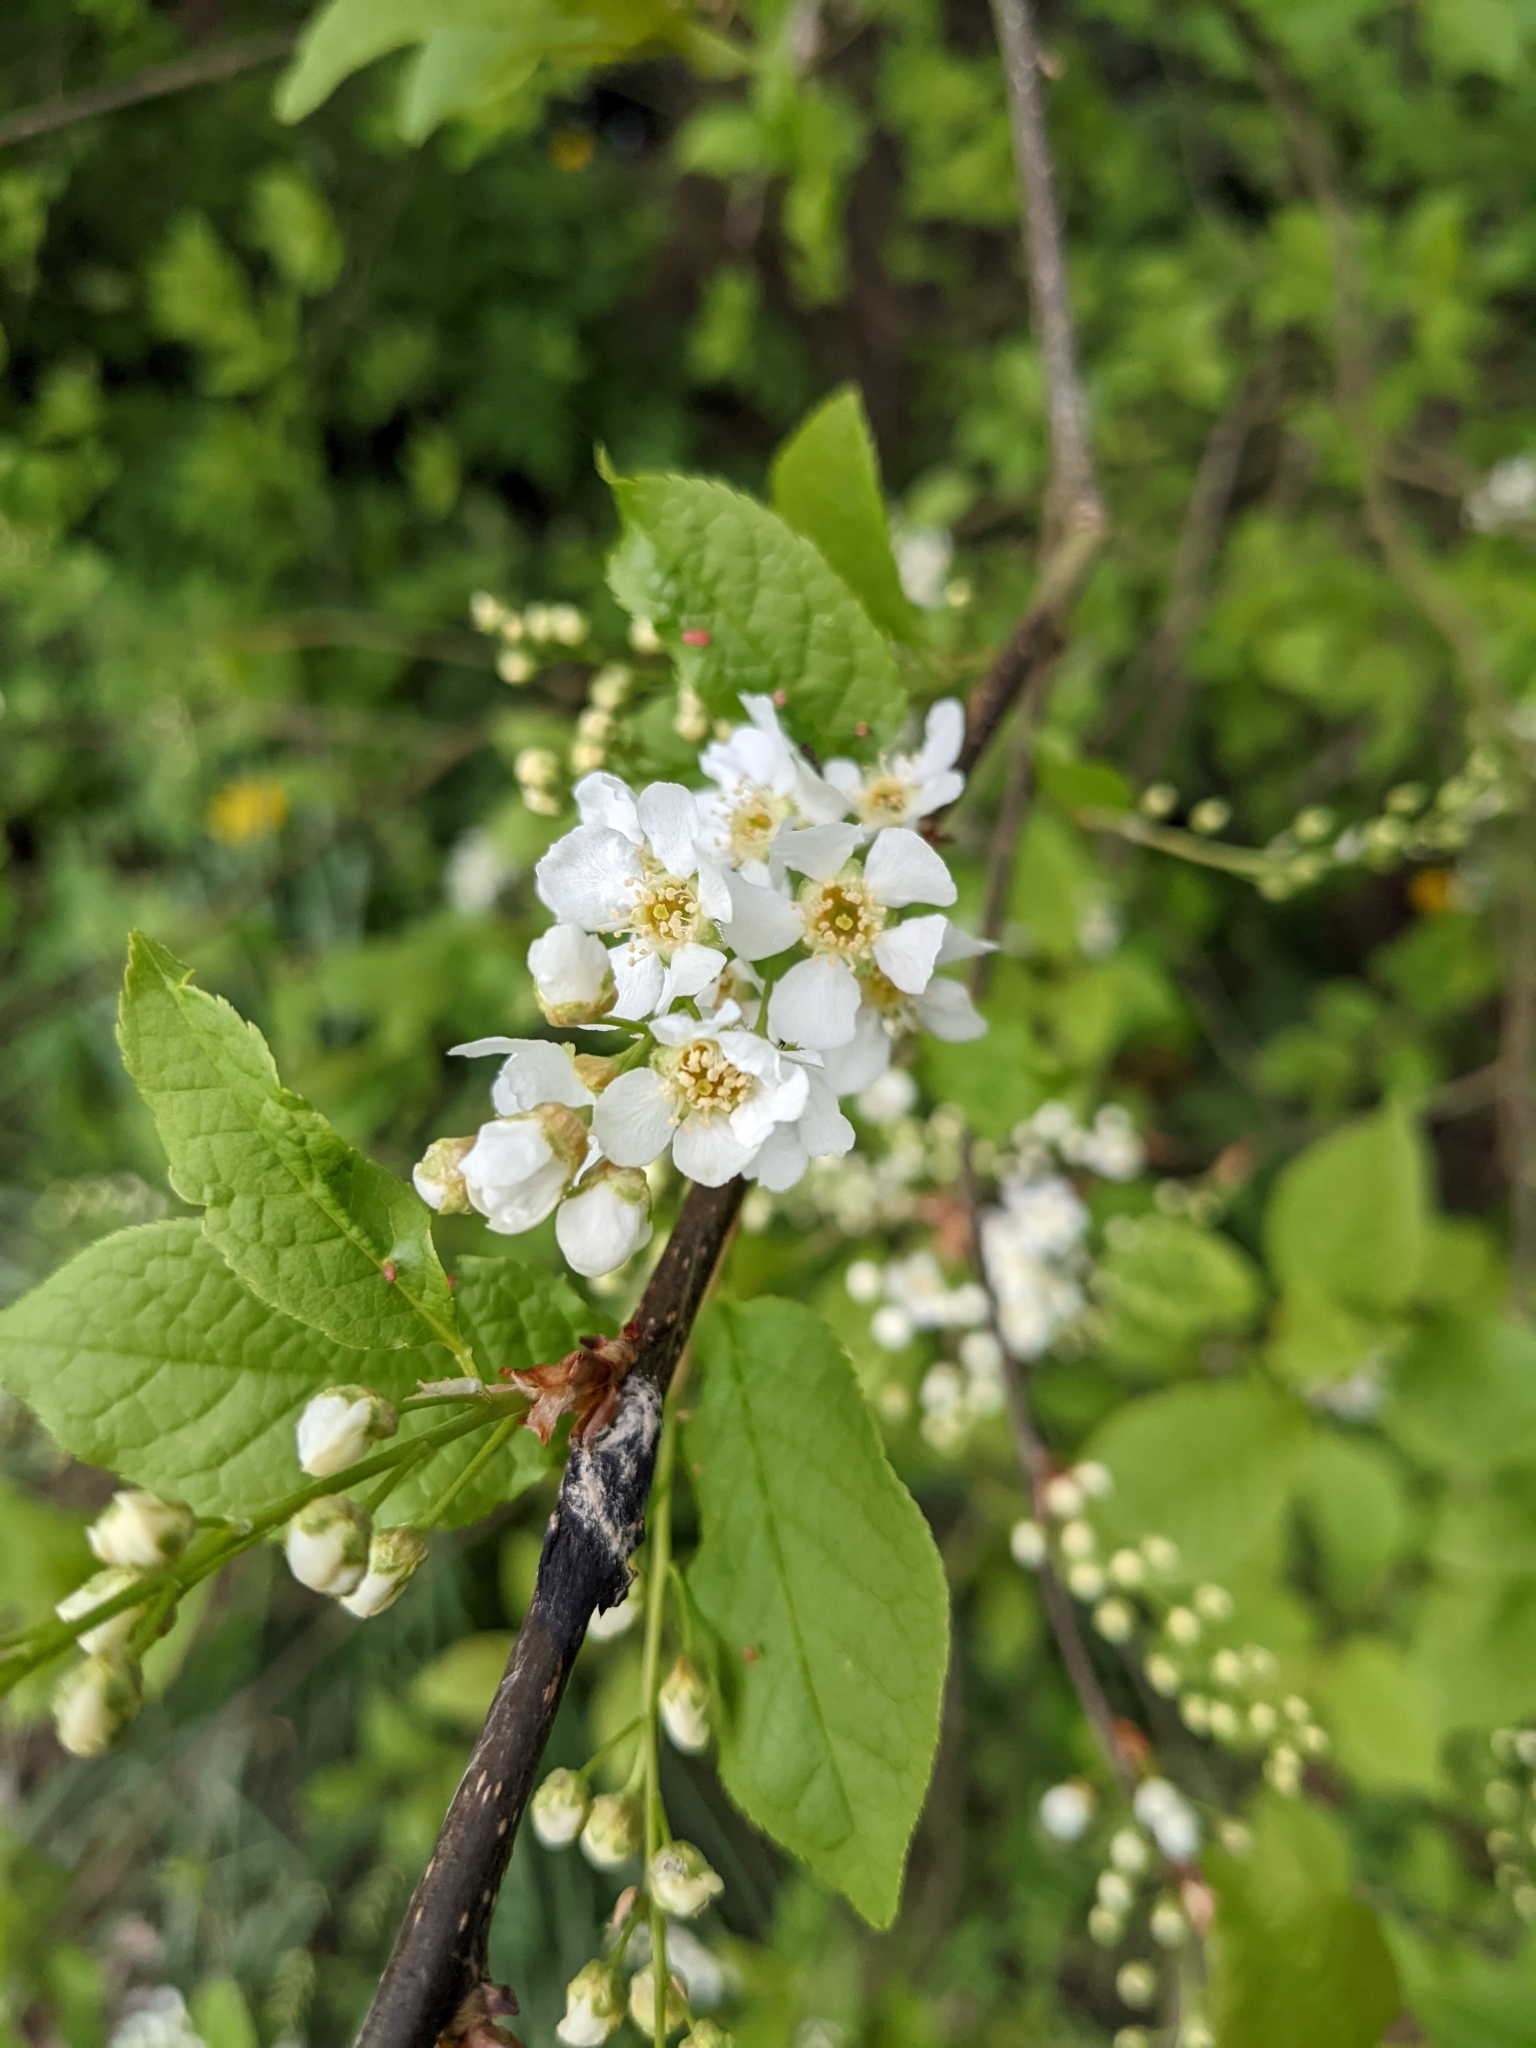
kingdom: Plantae
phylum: Tracheophyta
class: Magnoliopsida
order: Rosales
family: Rosaceae
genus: Prunus
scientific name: Prunus padus
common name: Bird cherry
